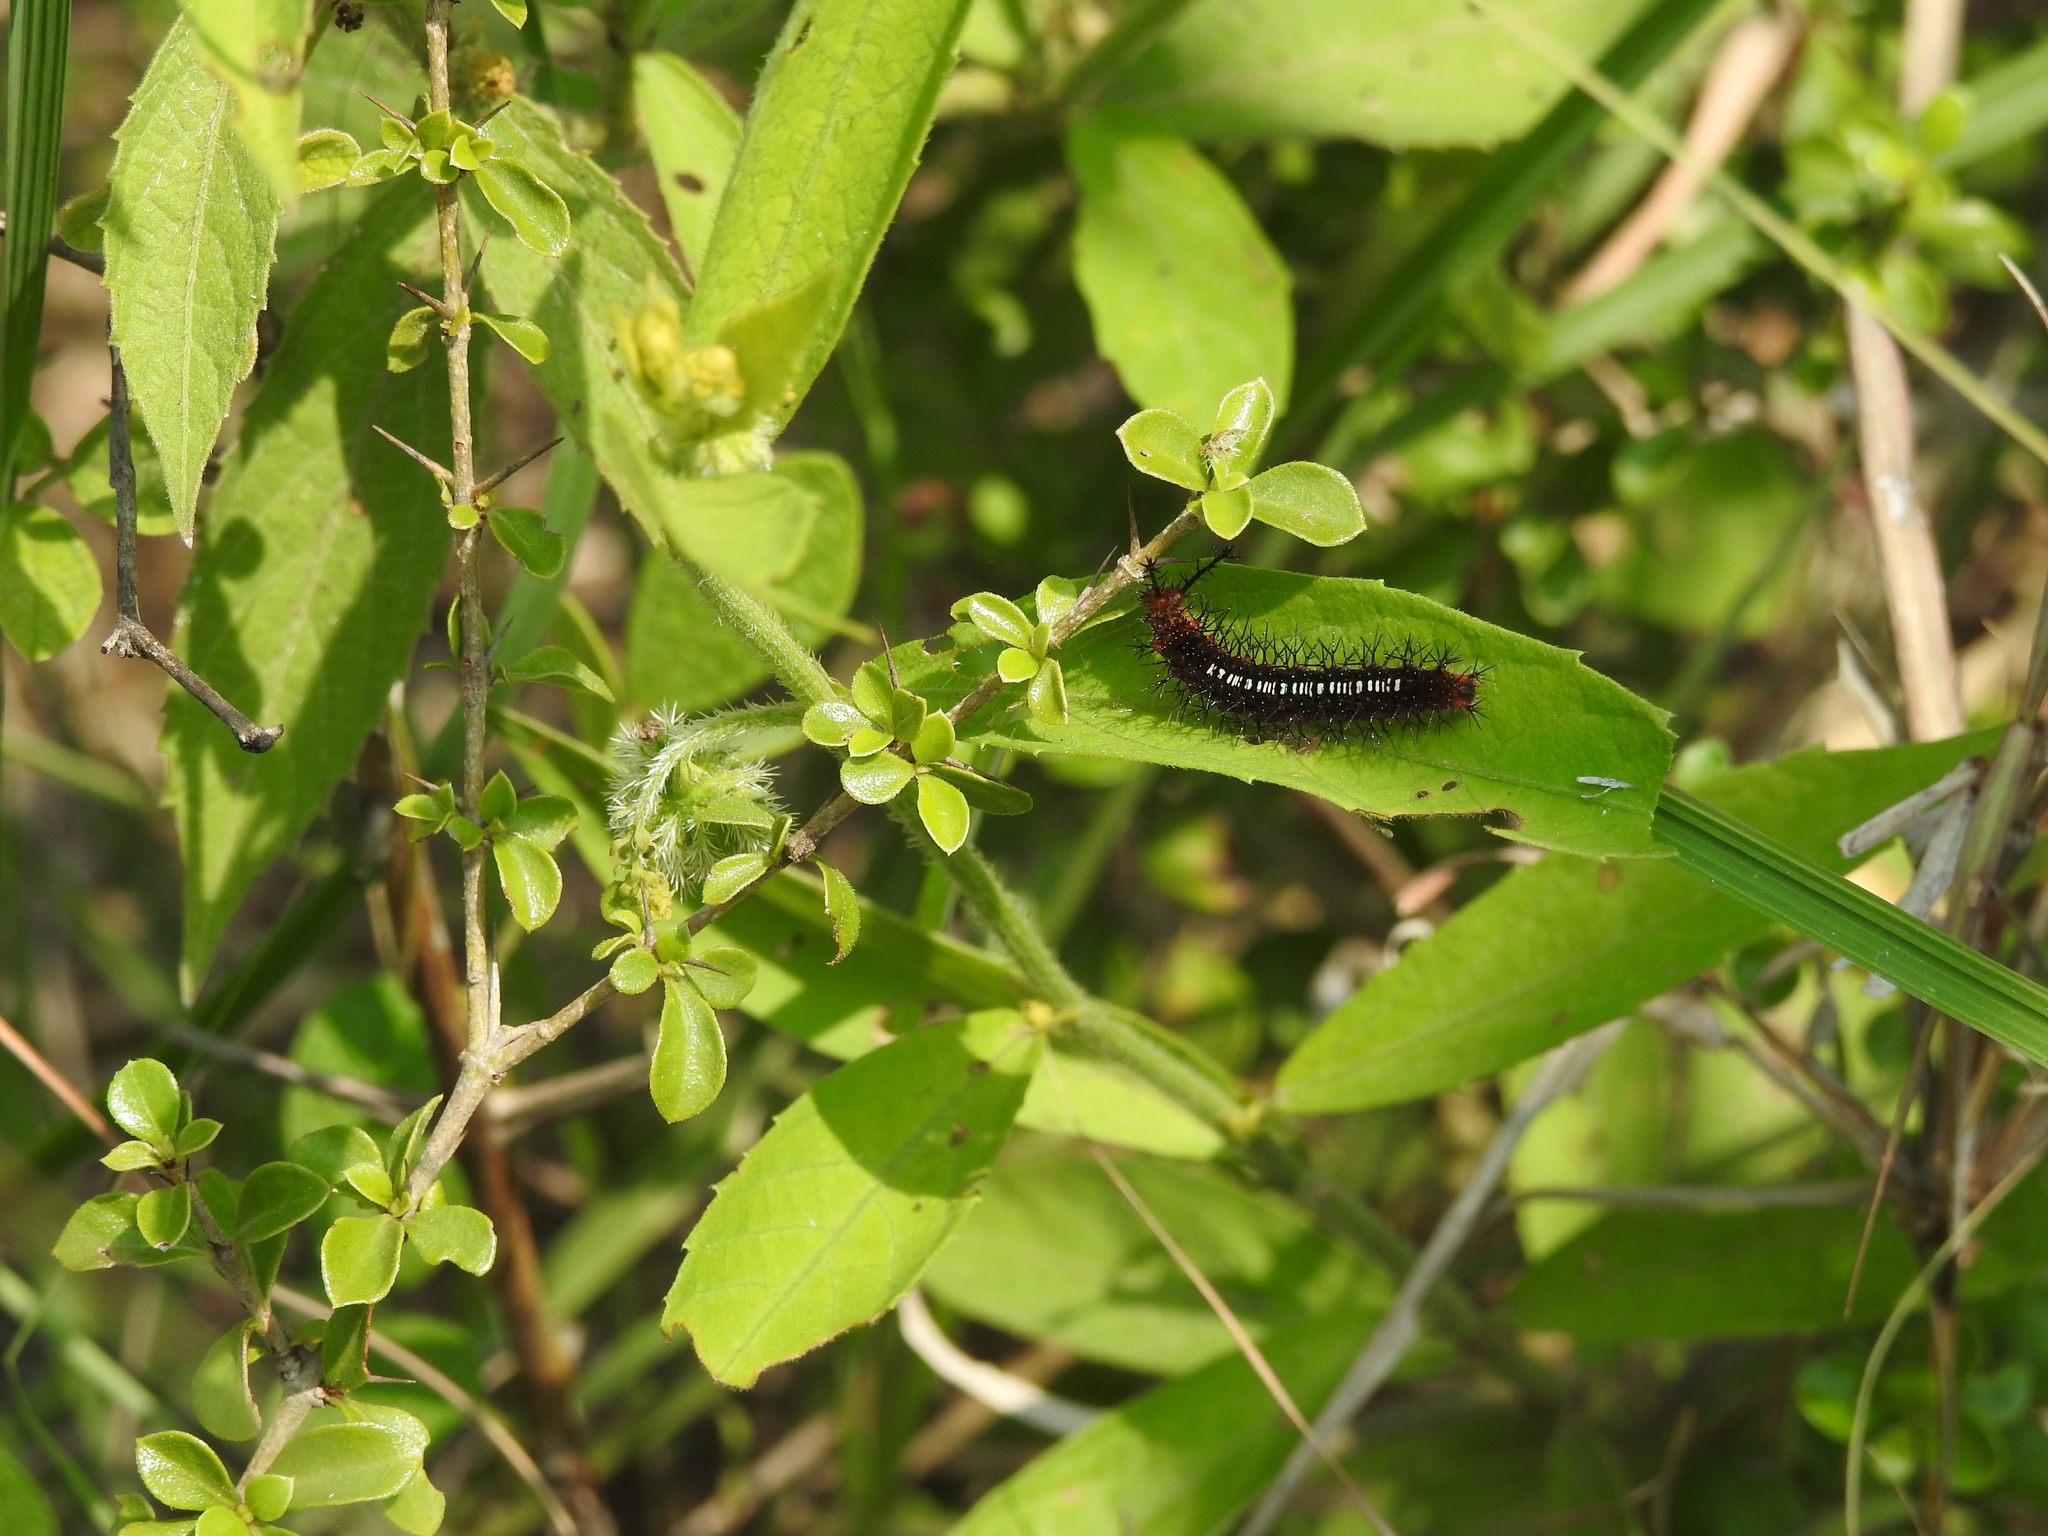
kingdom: Animalia
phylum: Arthropoda
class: Insecta
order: Lepidoptera
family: Nymphalidae
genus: Ariadne
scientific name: Ariadne ariadne
